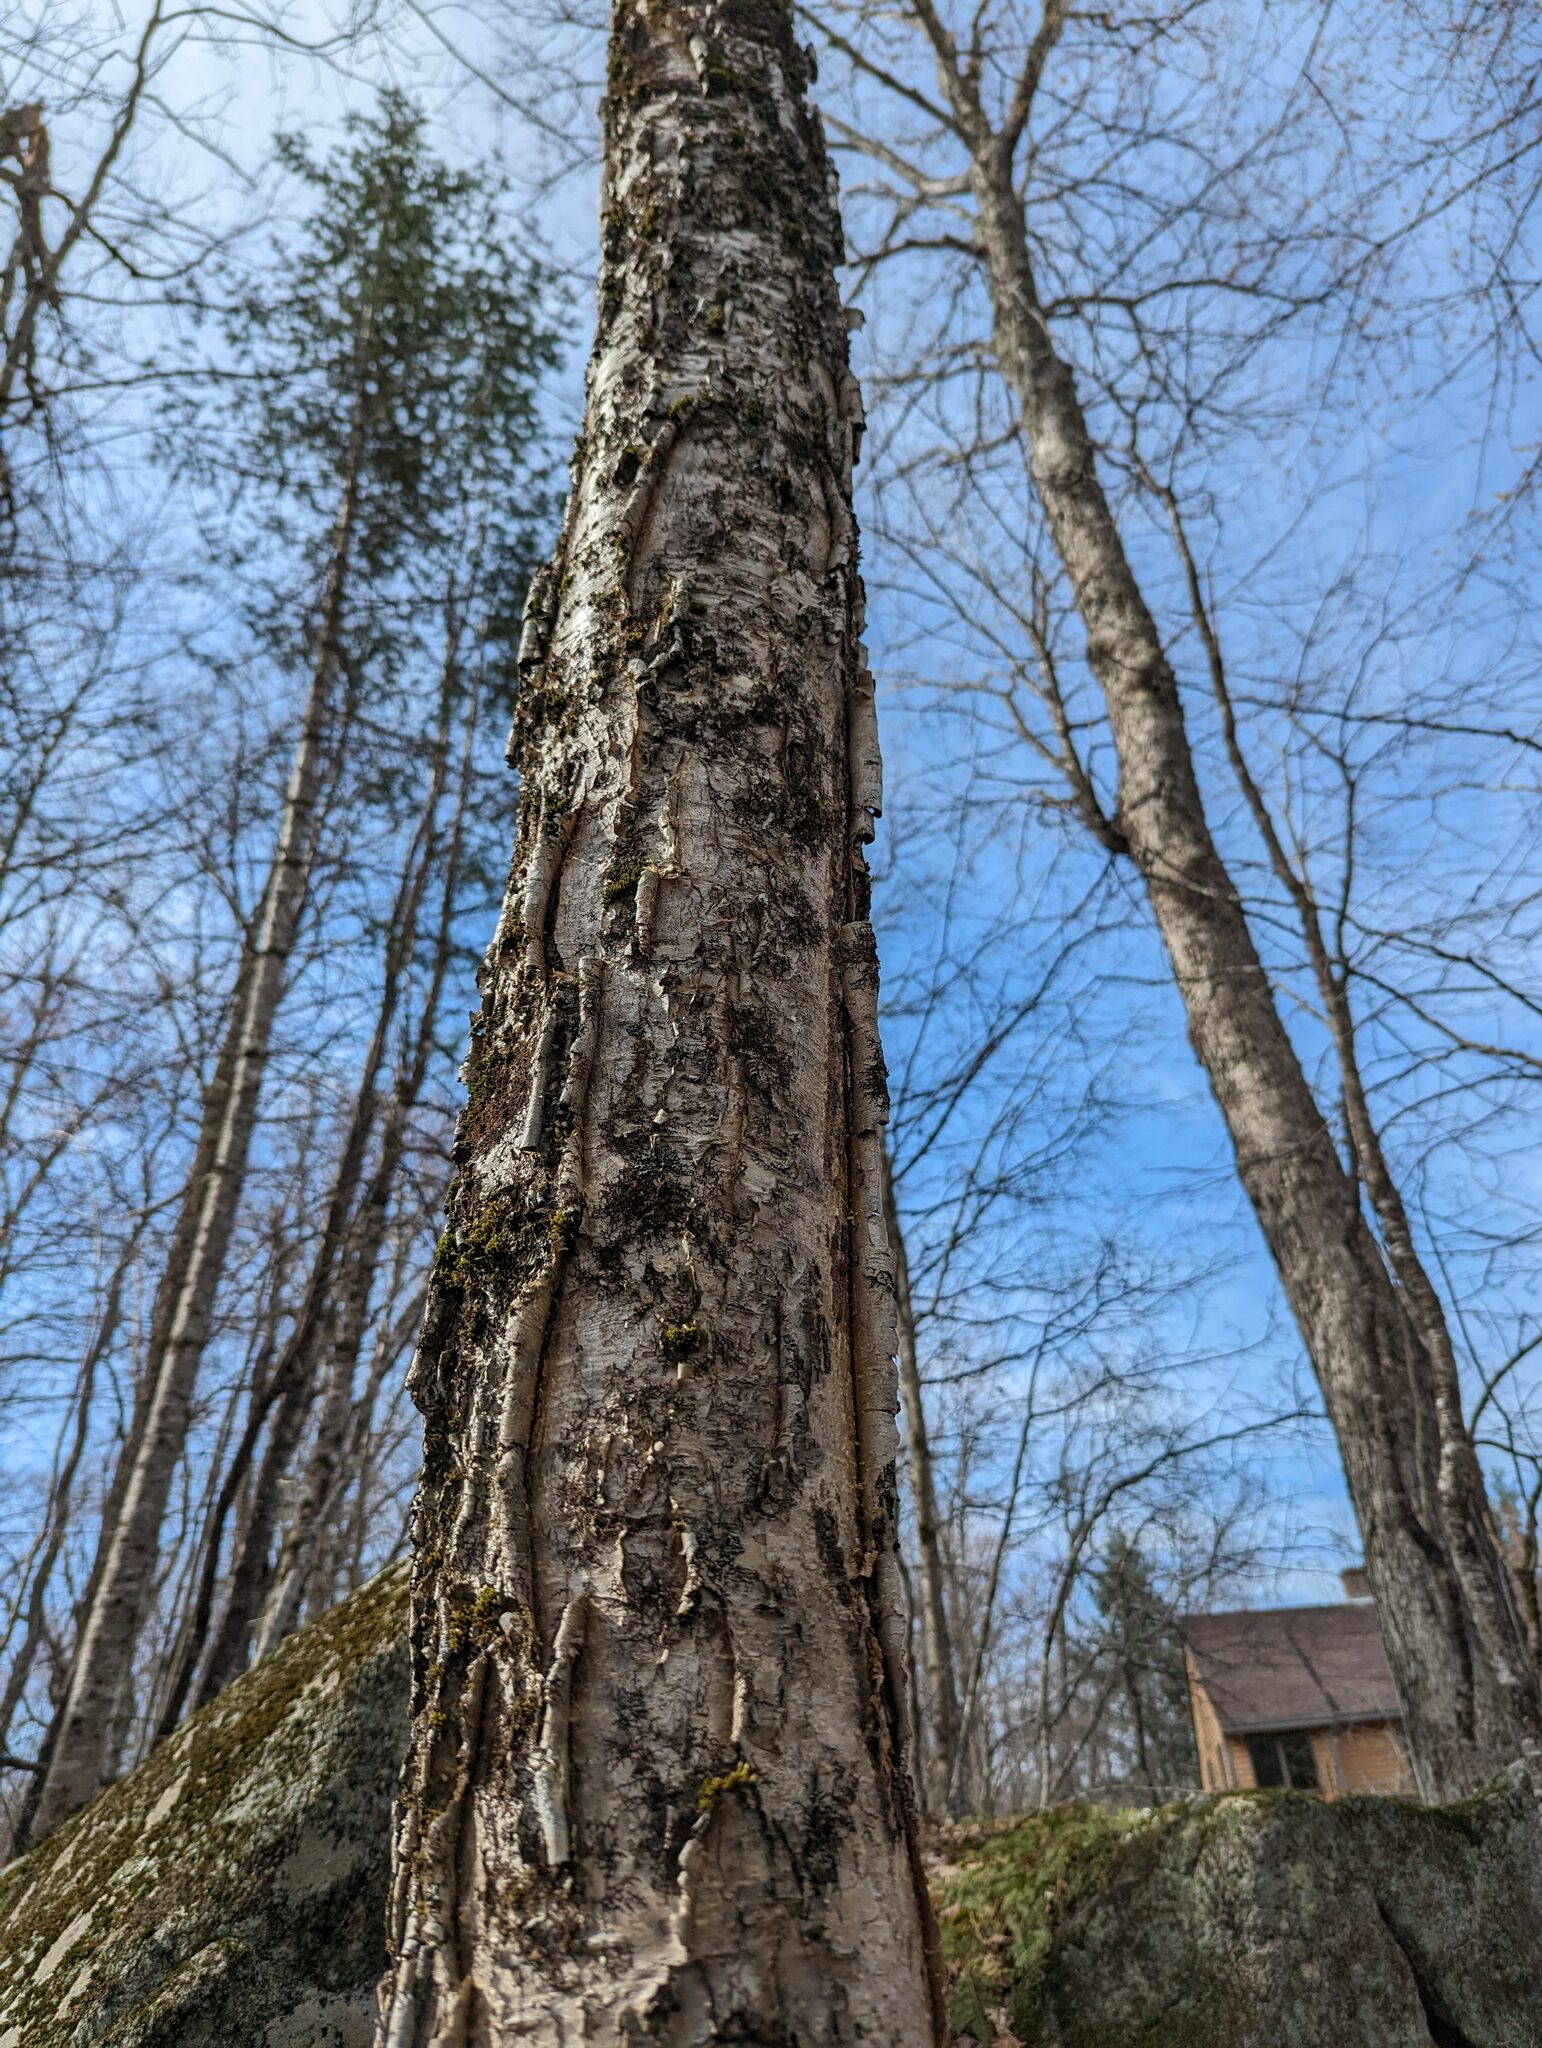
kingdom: Plantae
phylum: Tracheophyta
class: Magnoliopsida
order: Fagales
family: Betulaceae
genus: Betula
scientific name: Betula alleghaniensis
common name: Yellow birch
